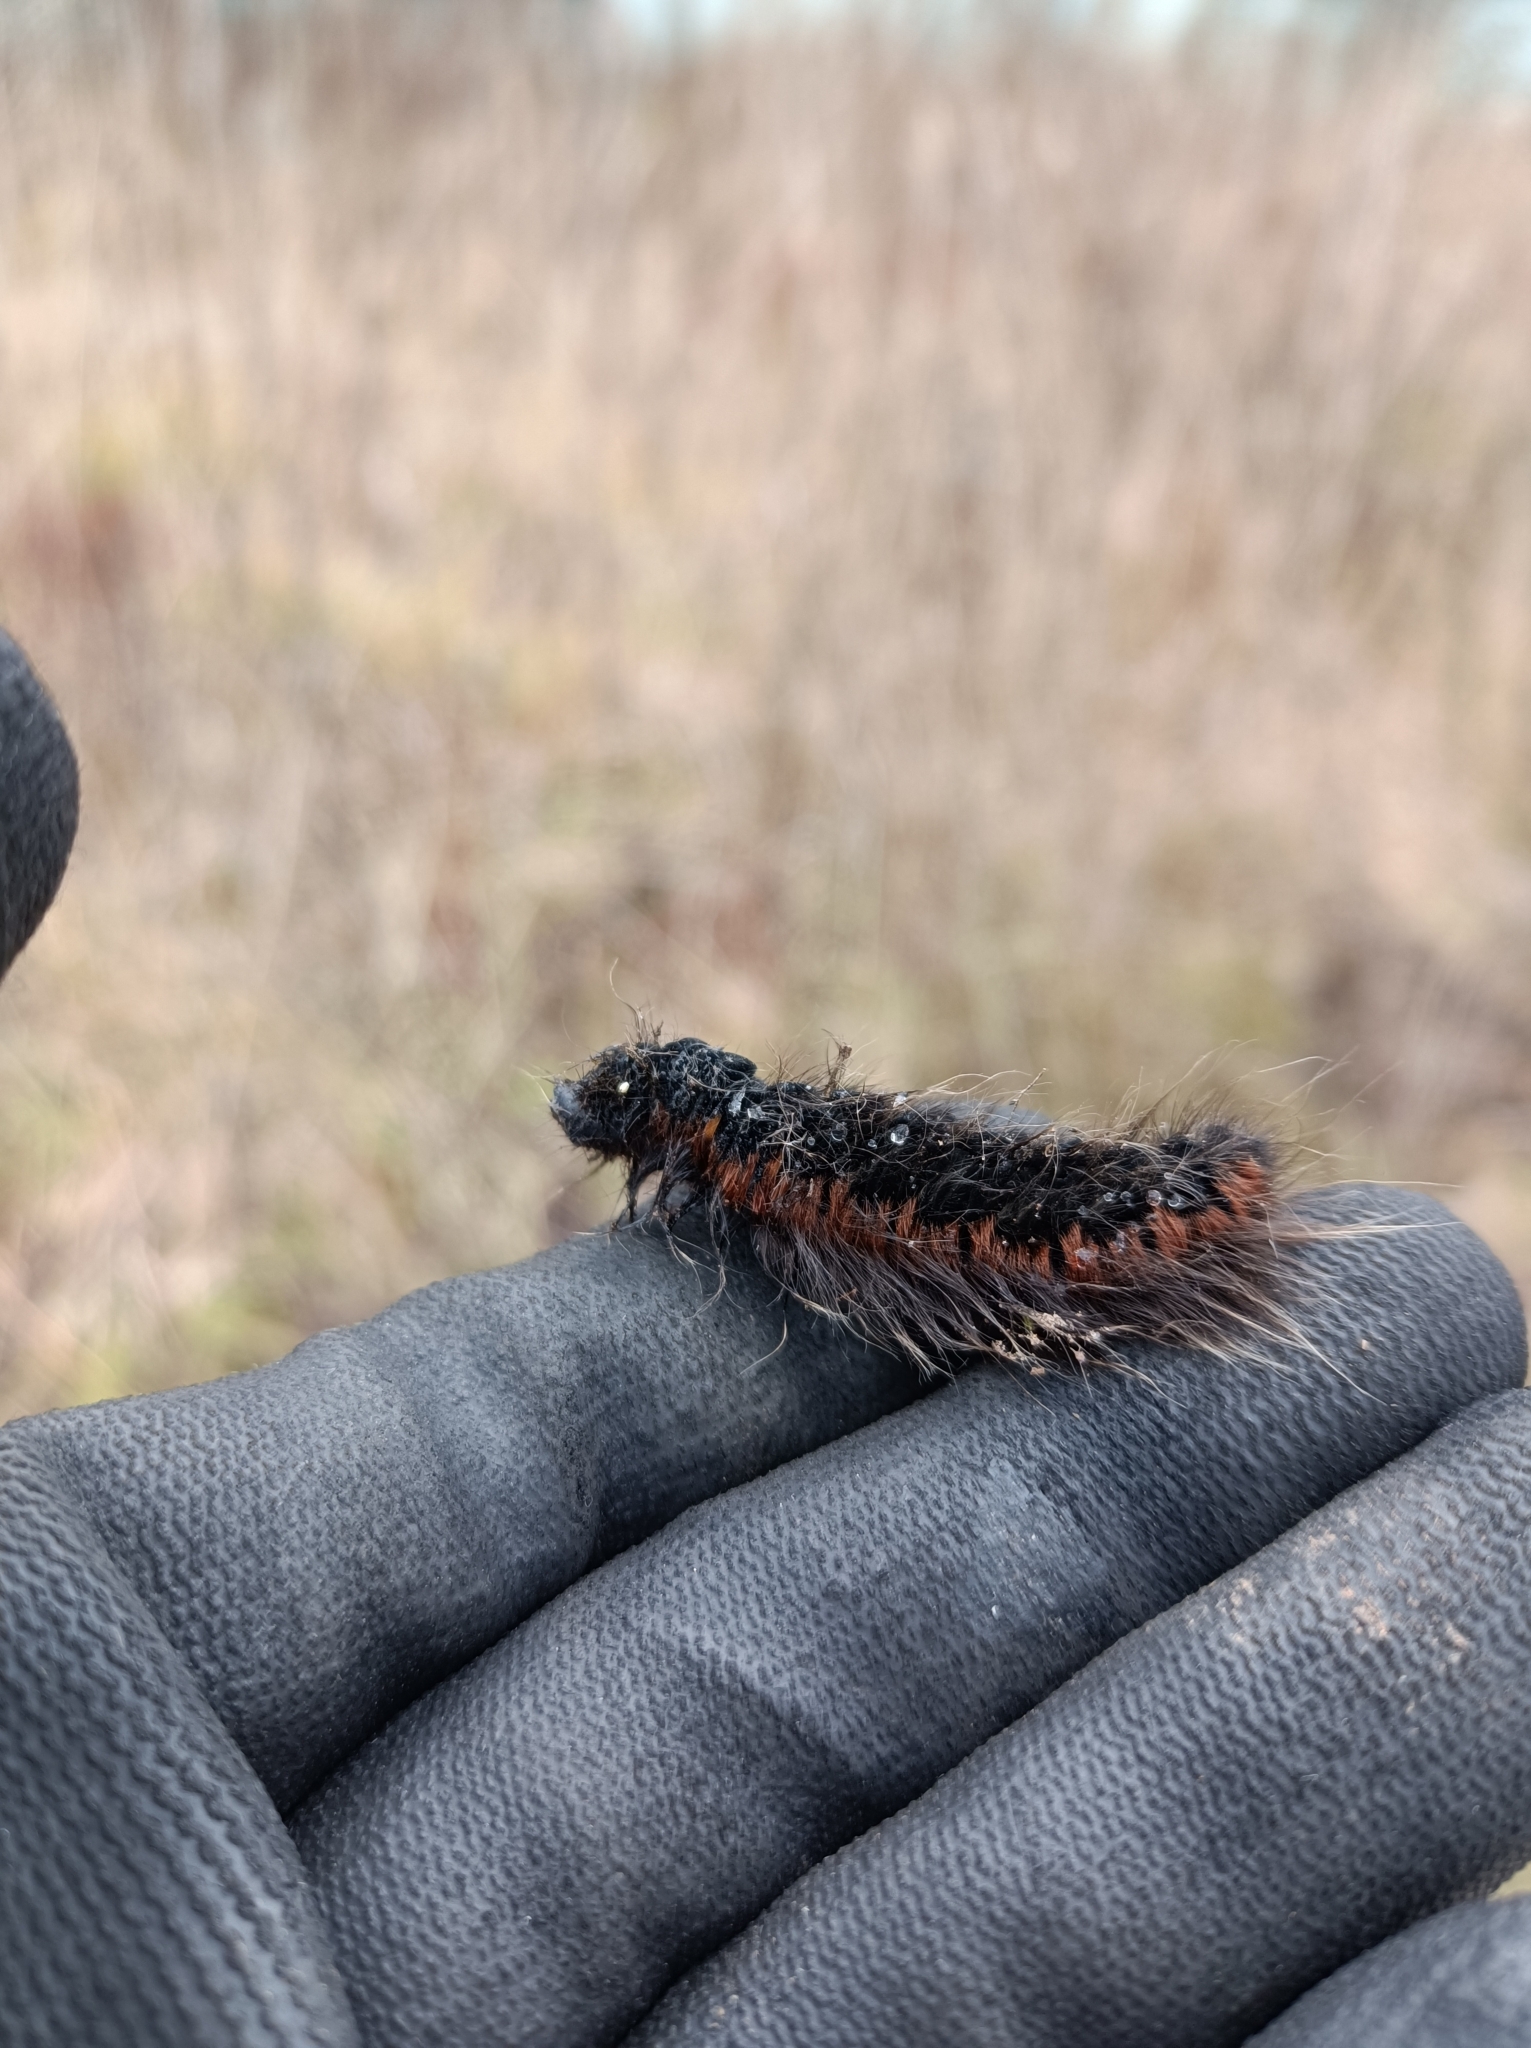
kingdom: Animalia
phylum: Arthropoda
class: Insecta
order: Lepidoptera
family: Lasiocampidae
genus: Macrothylacia
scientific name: Macrothylacia rubi
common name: Fox moth
